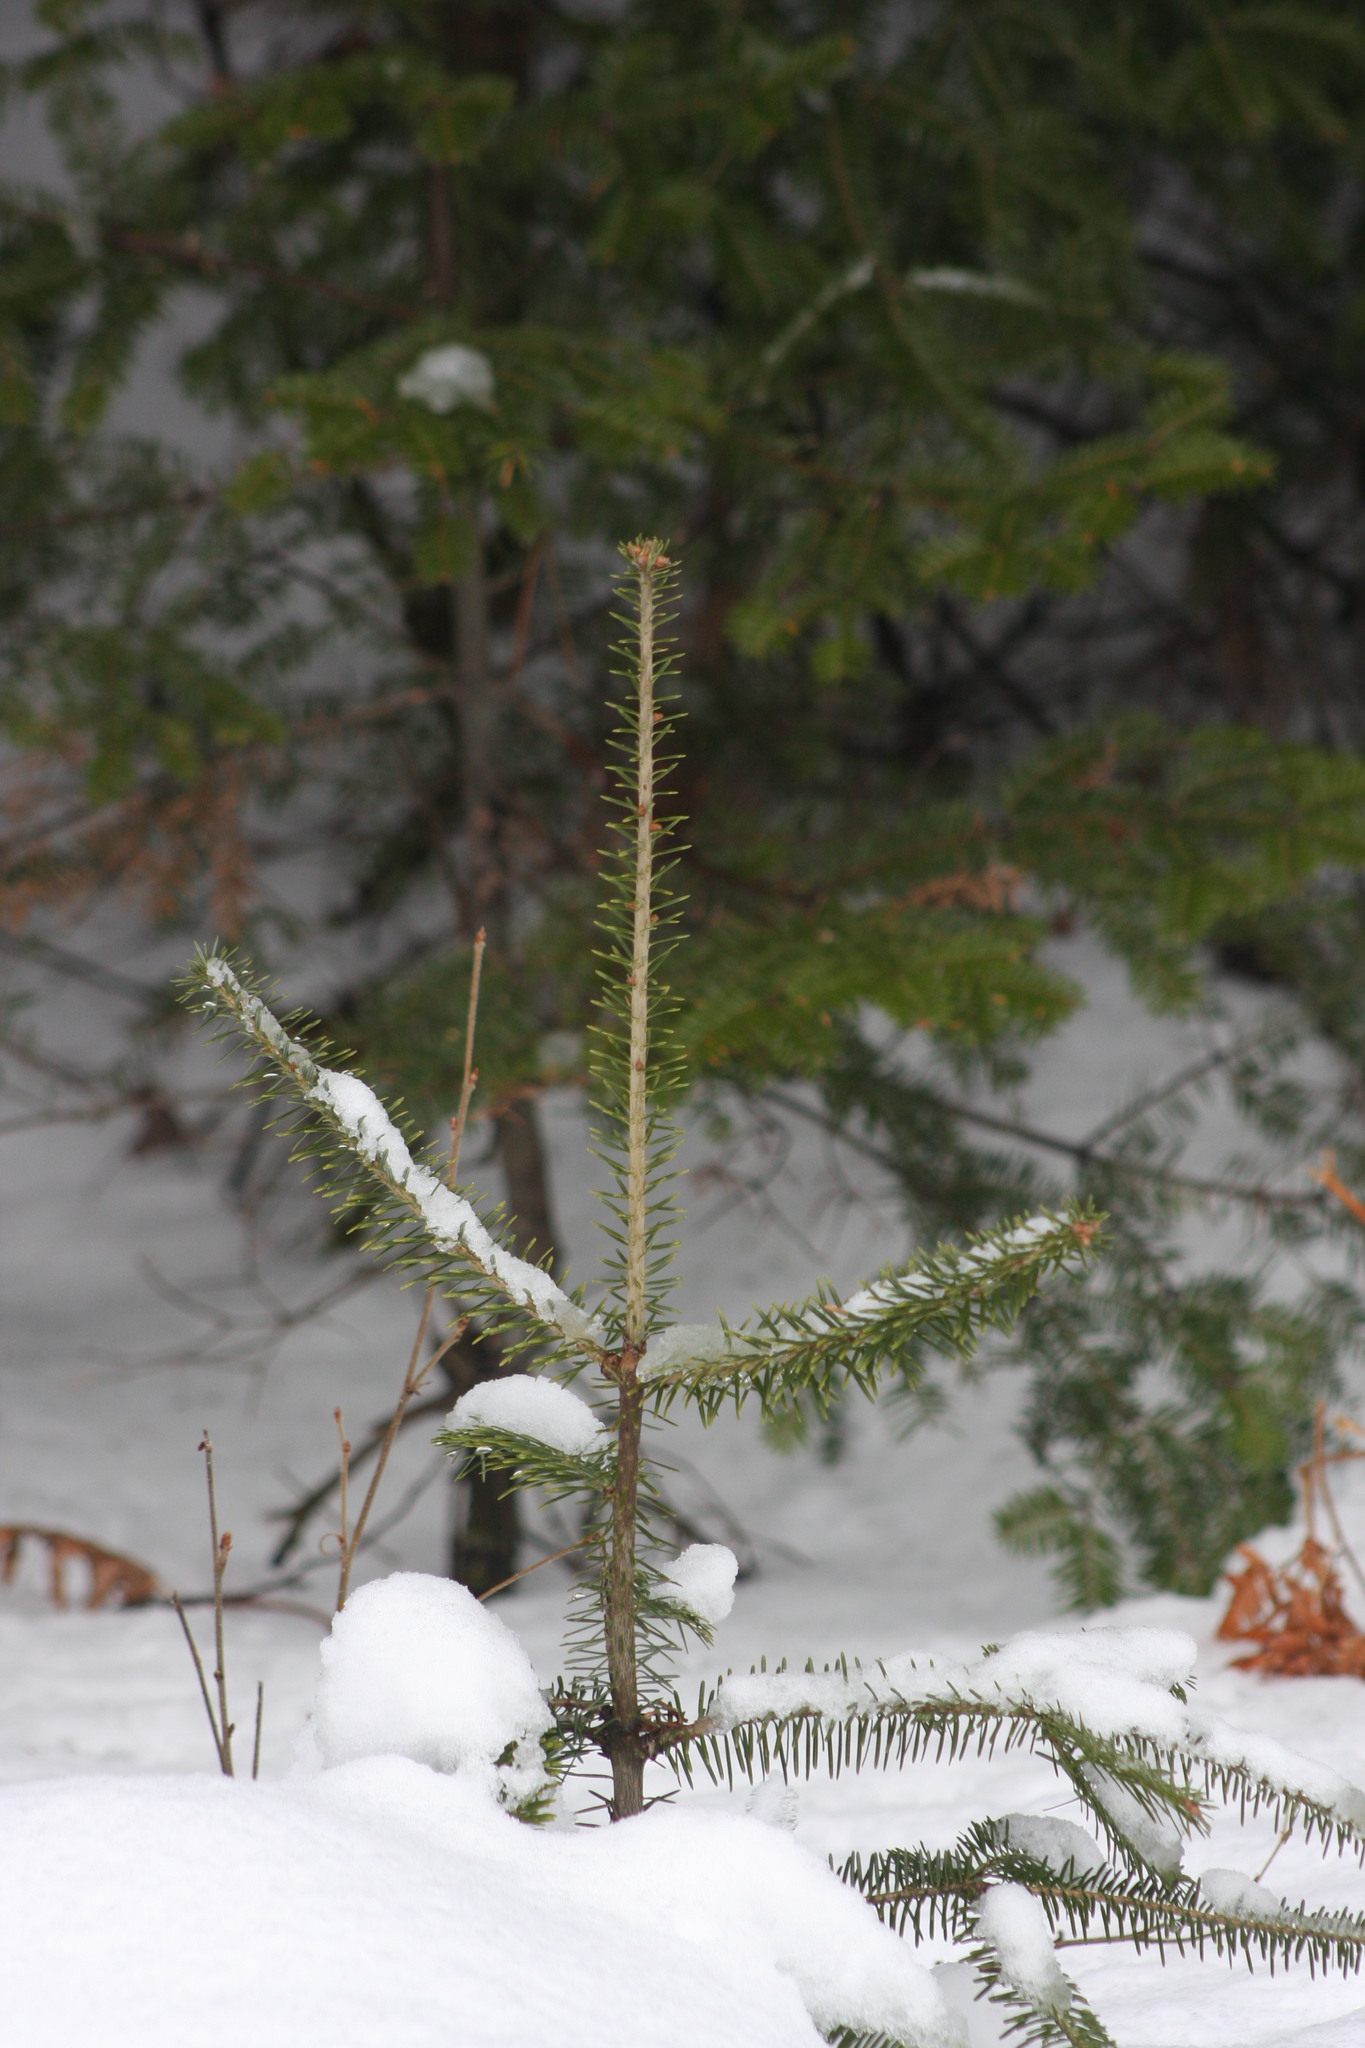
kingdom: Plantae
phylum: Tracheophyta
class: Pinopsida
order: Pinales
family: Pinaceae
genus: Abies
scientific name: Abies balsamea
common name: Balsam fir
